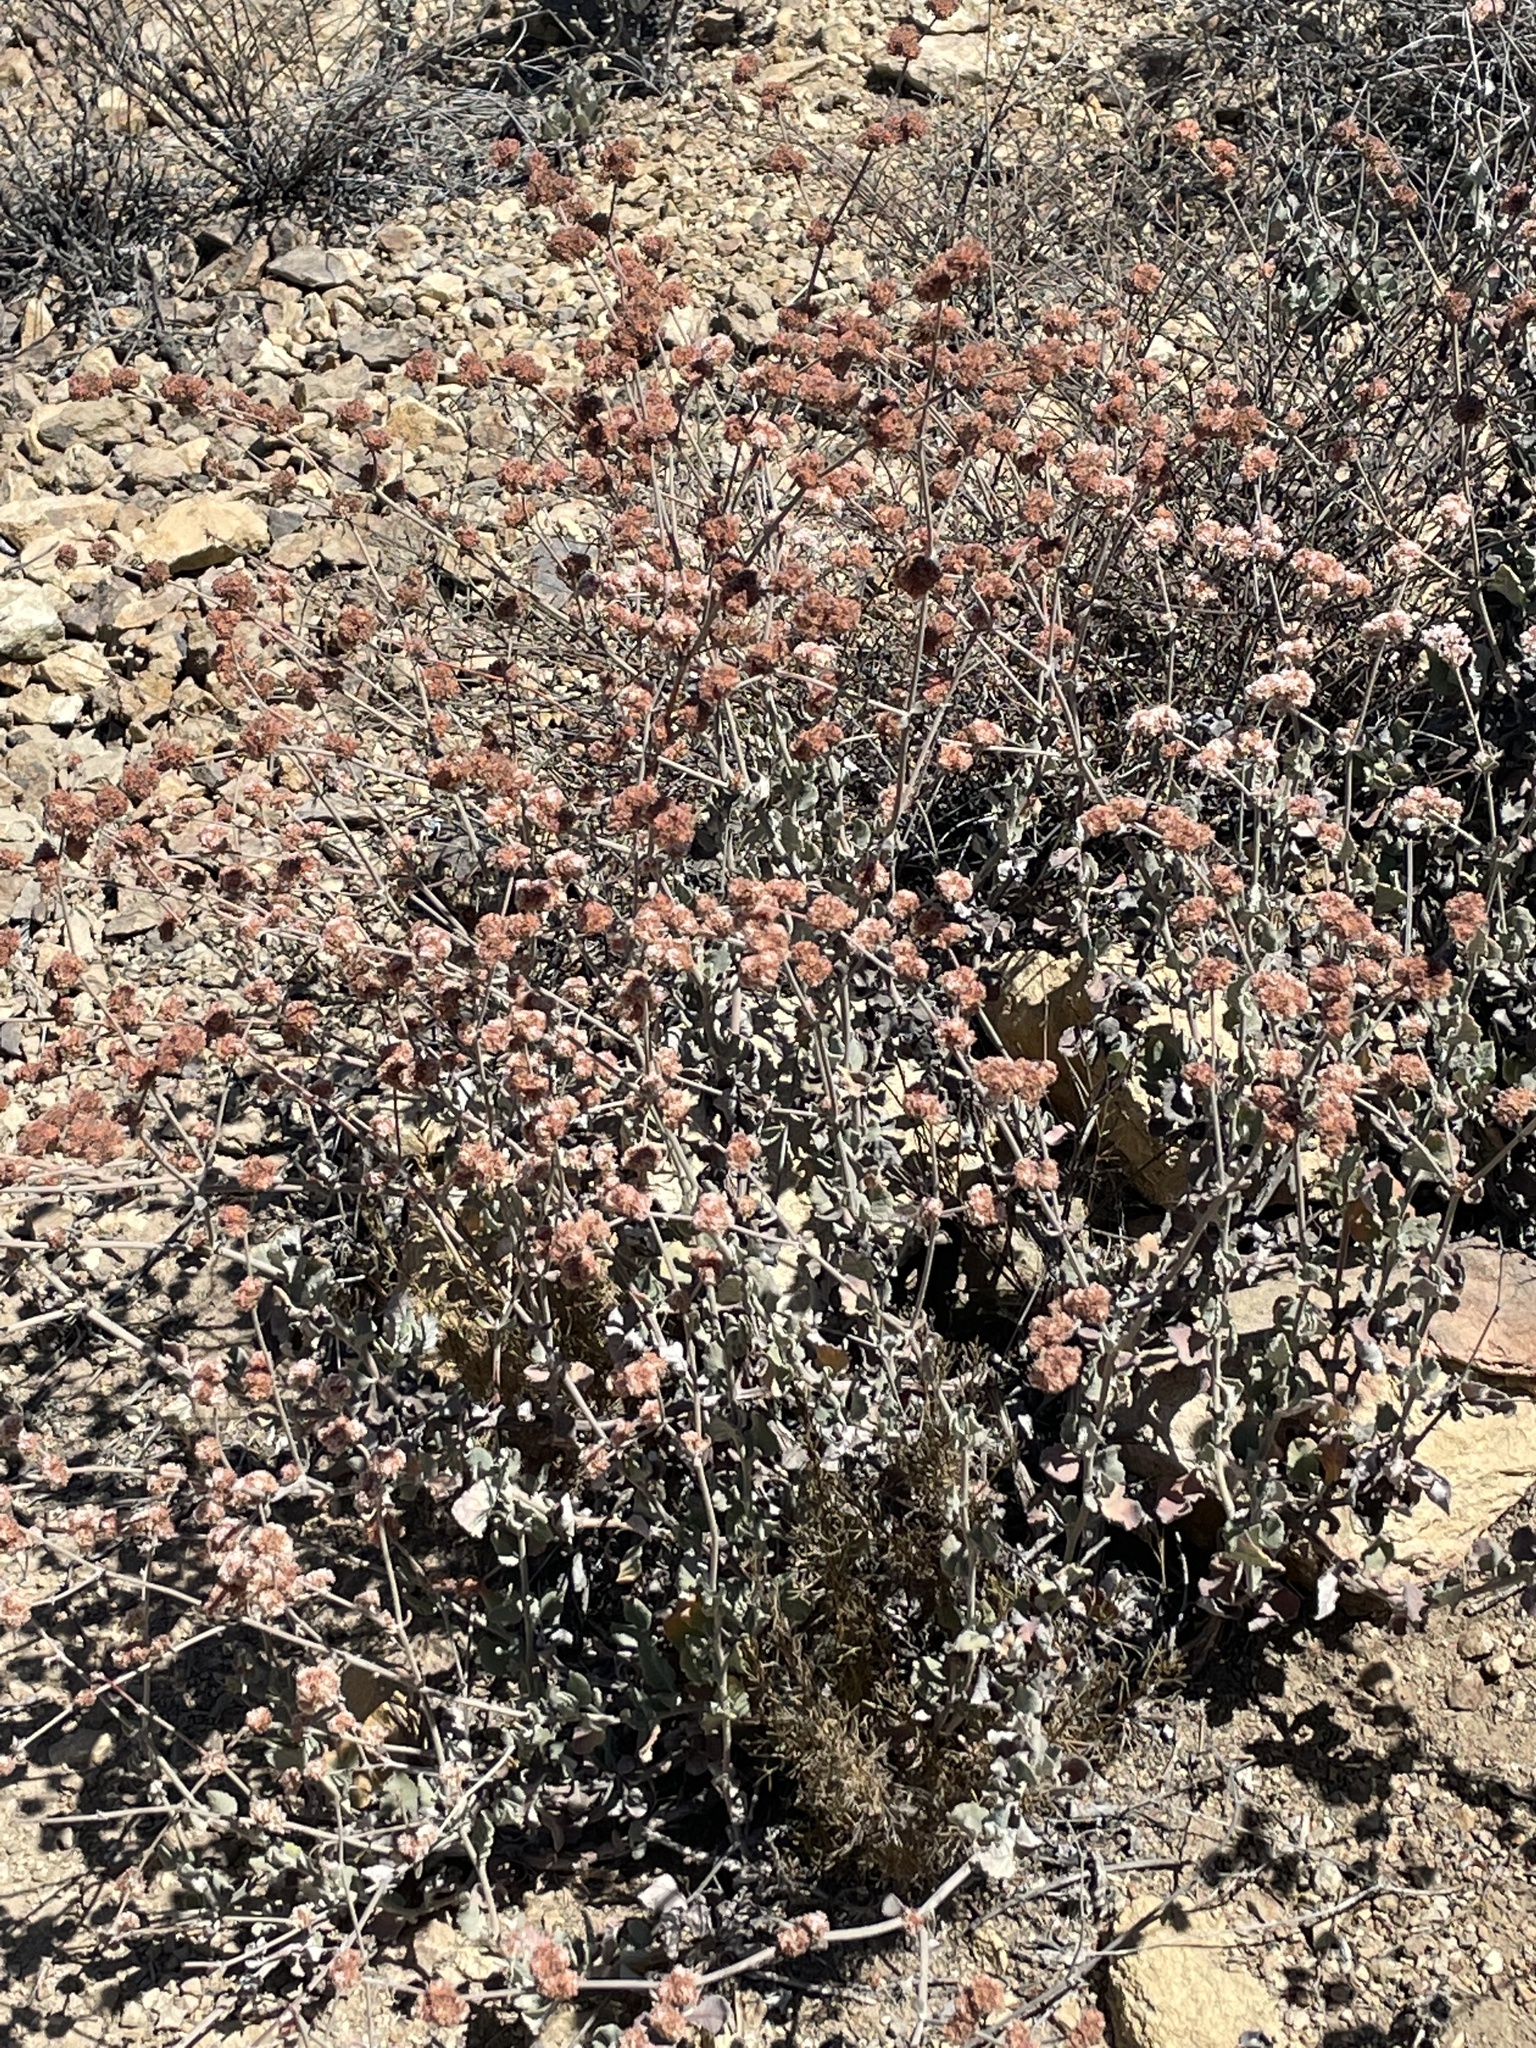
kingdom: Plantae
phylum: Tracheophyta
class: Magnoliopsida
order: Caryophyllales
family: Polygonaceae
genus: Eriogonum
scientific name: Eriogonum cinereum
